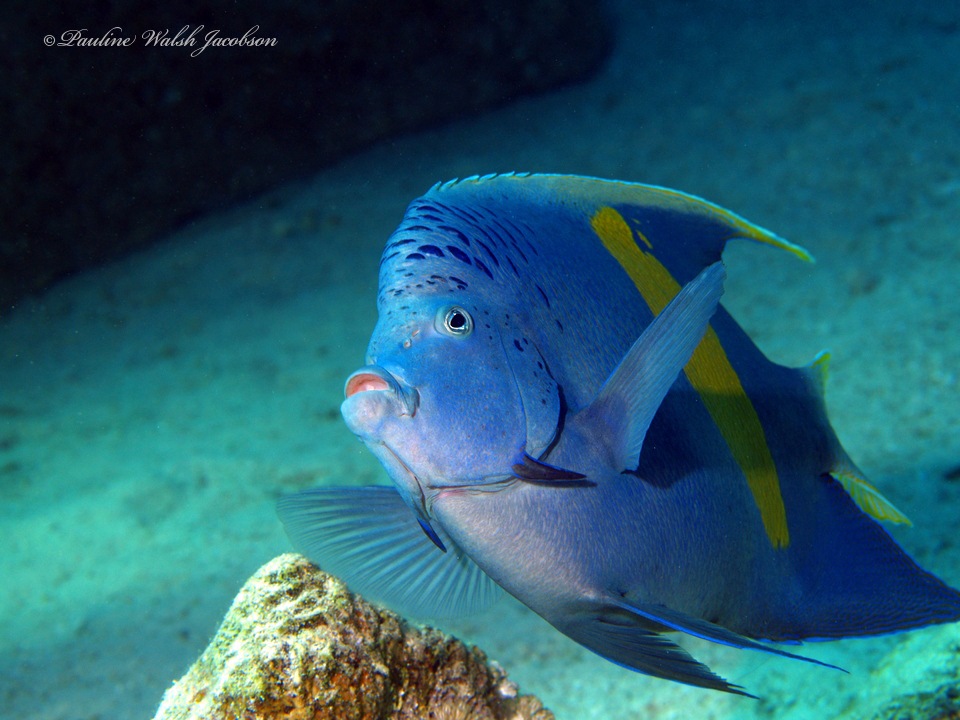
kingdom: Animalia
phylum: Chordata
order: Perciformes
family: Pomacanthidae
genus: Pomacanthus
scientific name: Pomacanthus maculosus
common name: Yellowbar angelfish
